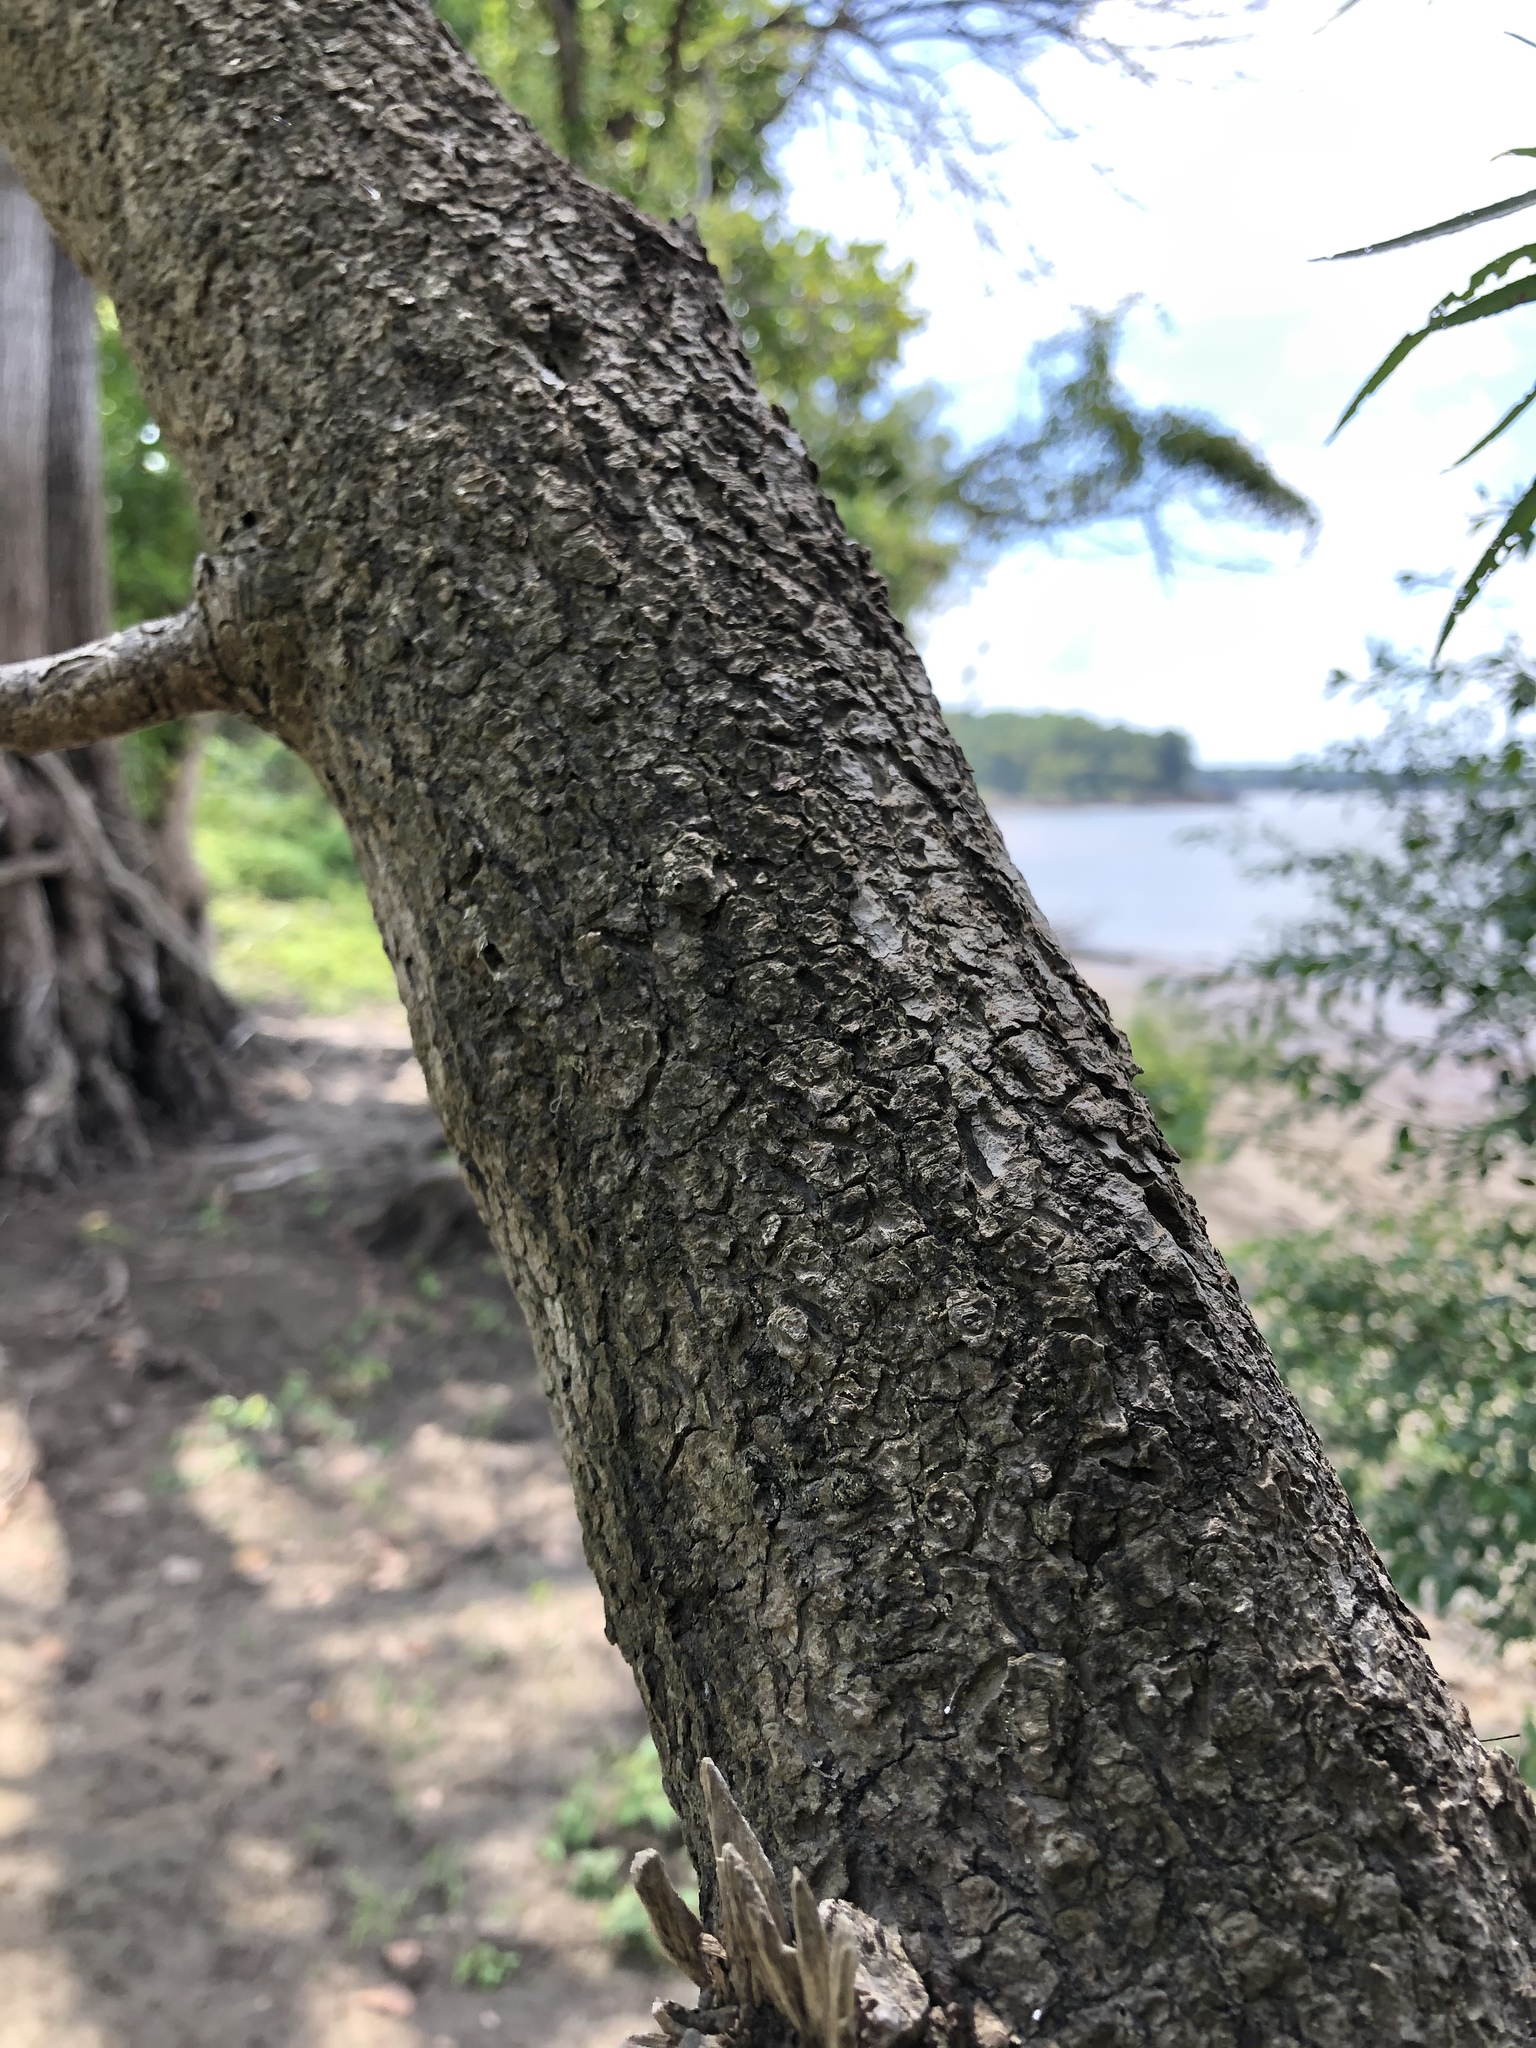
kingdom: Plantae
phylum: Tracheophyta
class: Magnoliopsida
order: Malpighiales
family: Salicaceae
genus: Salix
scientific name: Salix interior
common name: Sandbar willow
